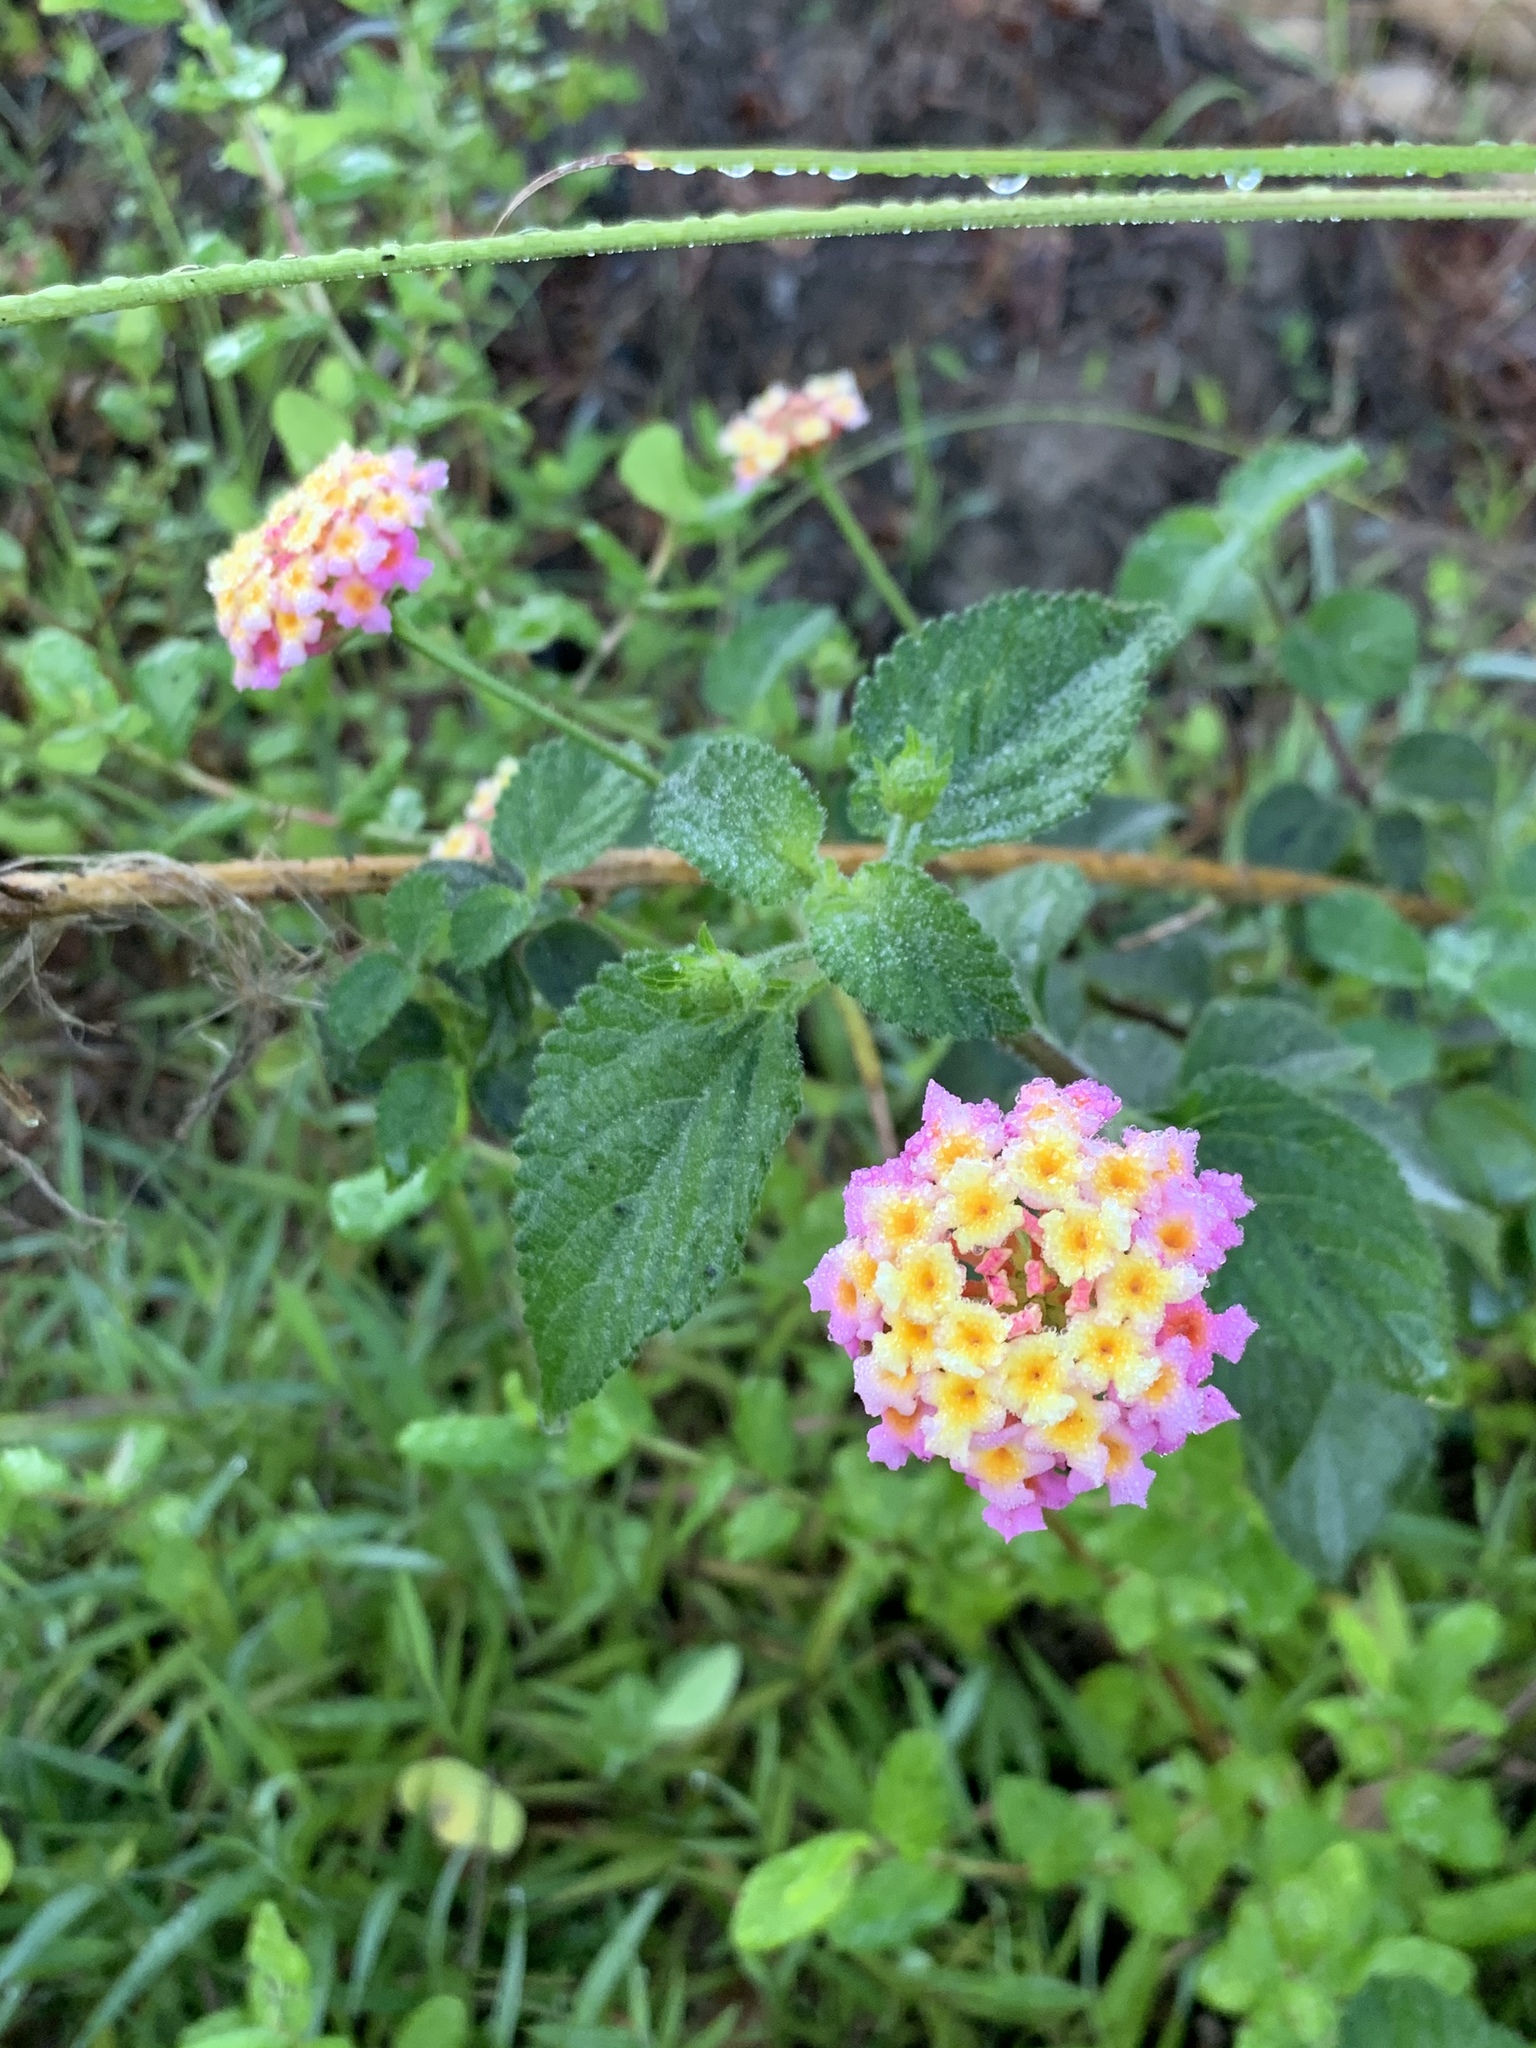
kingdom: Plantae
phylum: Tracheophyta
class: Magnoliopsida
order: Lamiales
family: Verbenaceae
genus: Lantana
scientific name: Lantana camara
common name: Lantana
